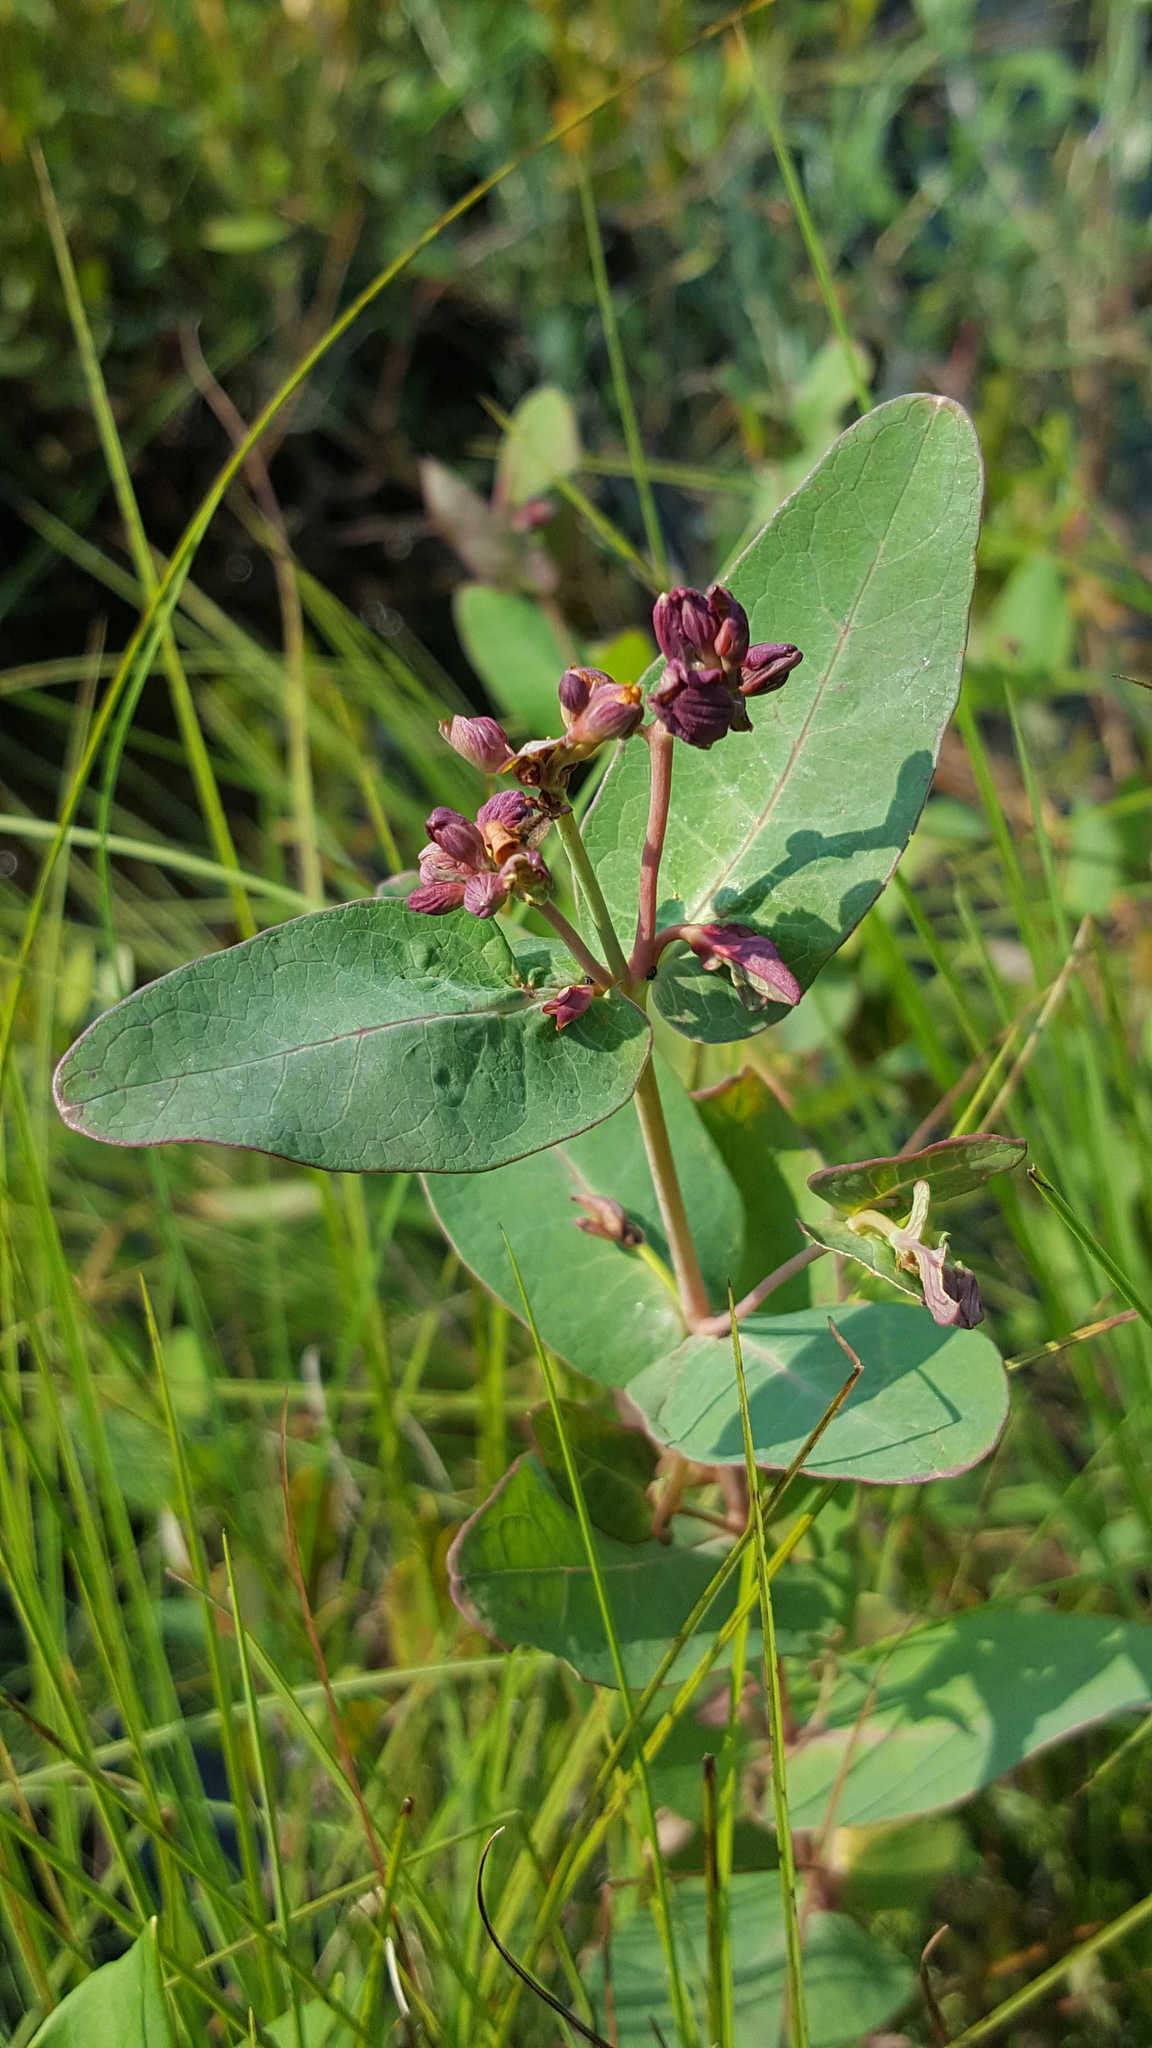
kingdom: Plantae
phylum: Tracheophyta
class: Magnoliopsida
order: Malpighiales
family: Hypericaceae
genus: Triadenum
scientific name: Triadenum fraseri
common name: Fraser's marsh st. johnswort
